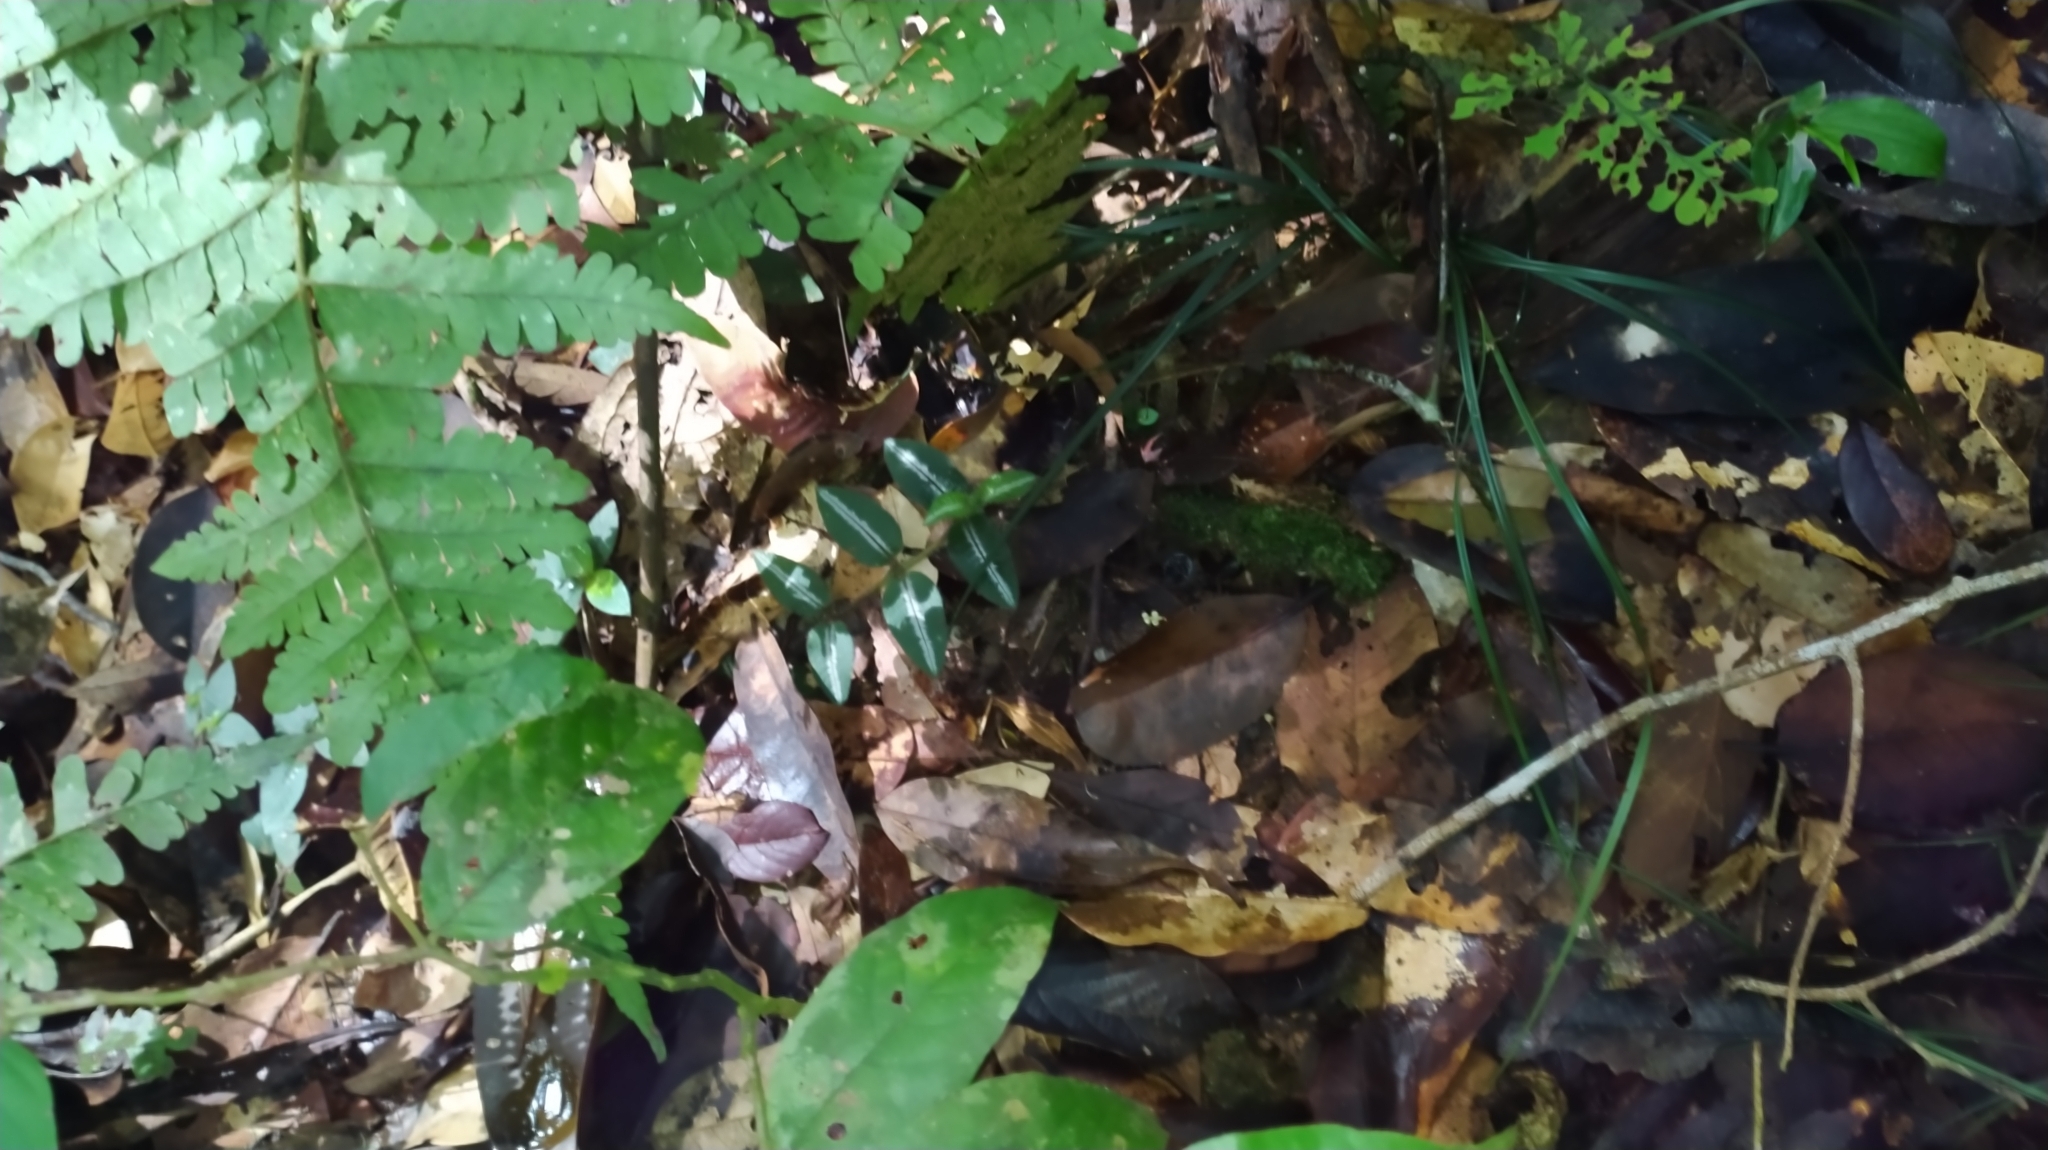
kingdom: Plantae
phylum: Tracheophyta
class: Magnoliopsida
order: Gentianales
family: Rubiaceae
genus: Palicourea
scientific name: Palicourea debilis
